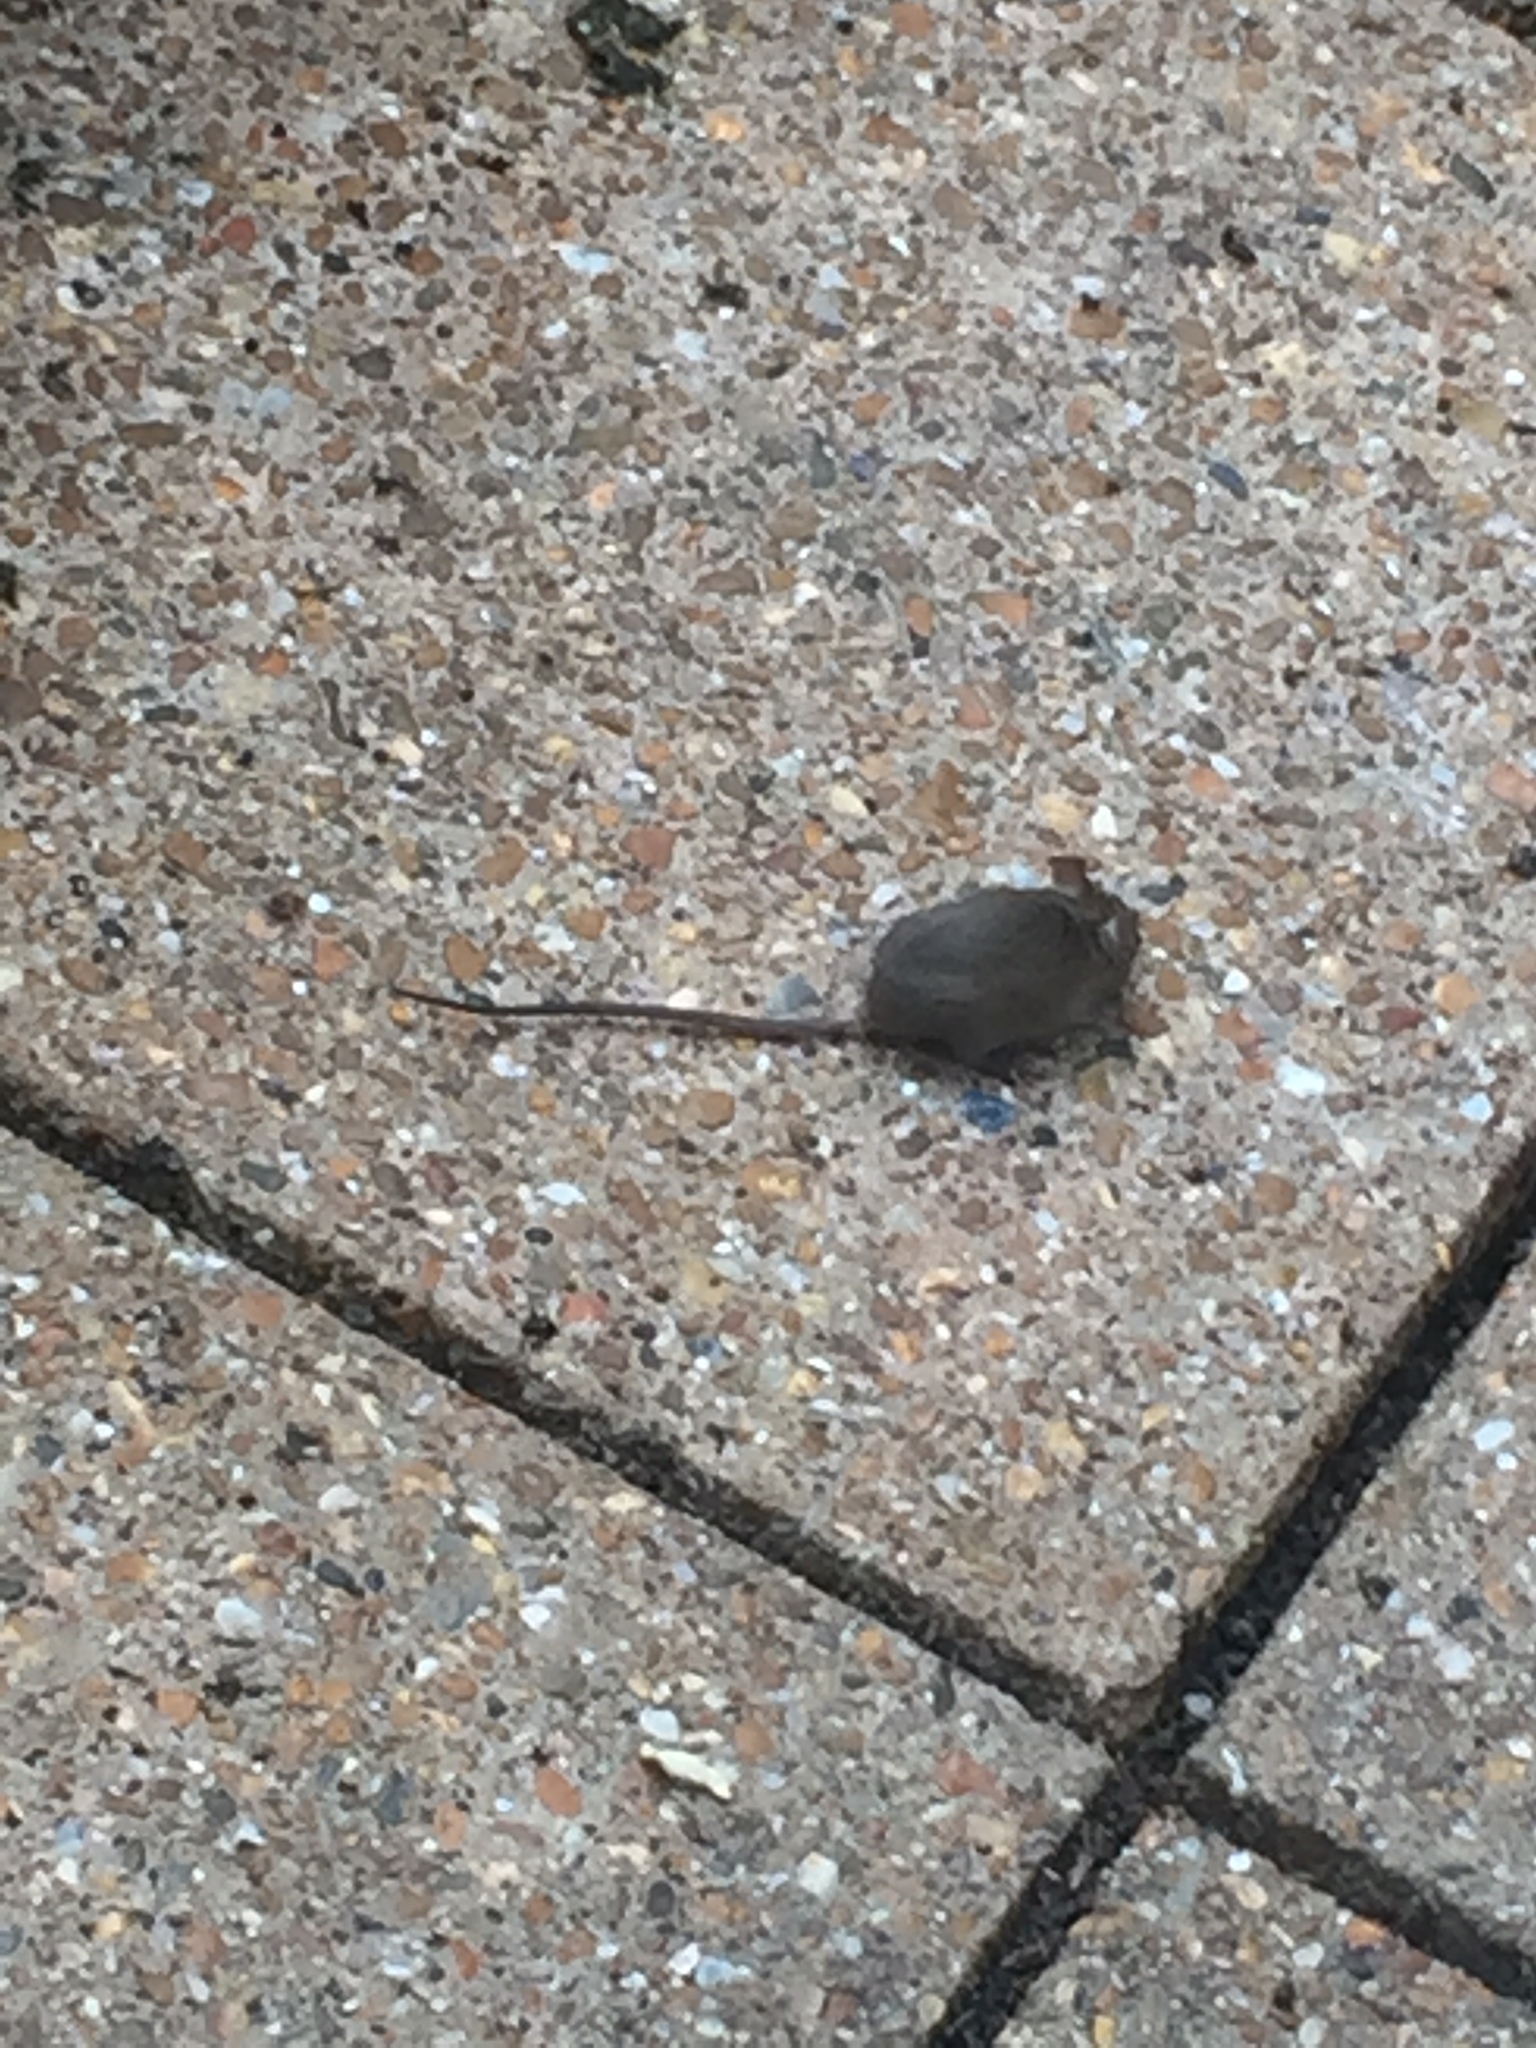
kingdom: Animalia
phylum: Chordata
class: Mammalia
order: Rodentia
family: Muridae
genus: Mus
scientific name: Mus musculus
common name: House mouse
